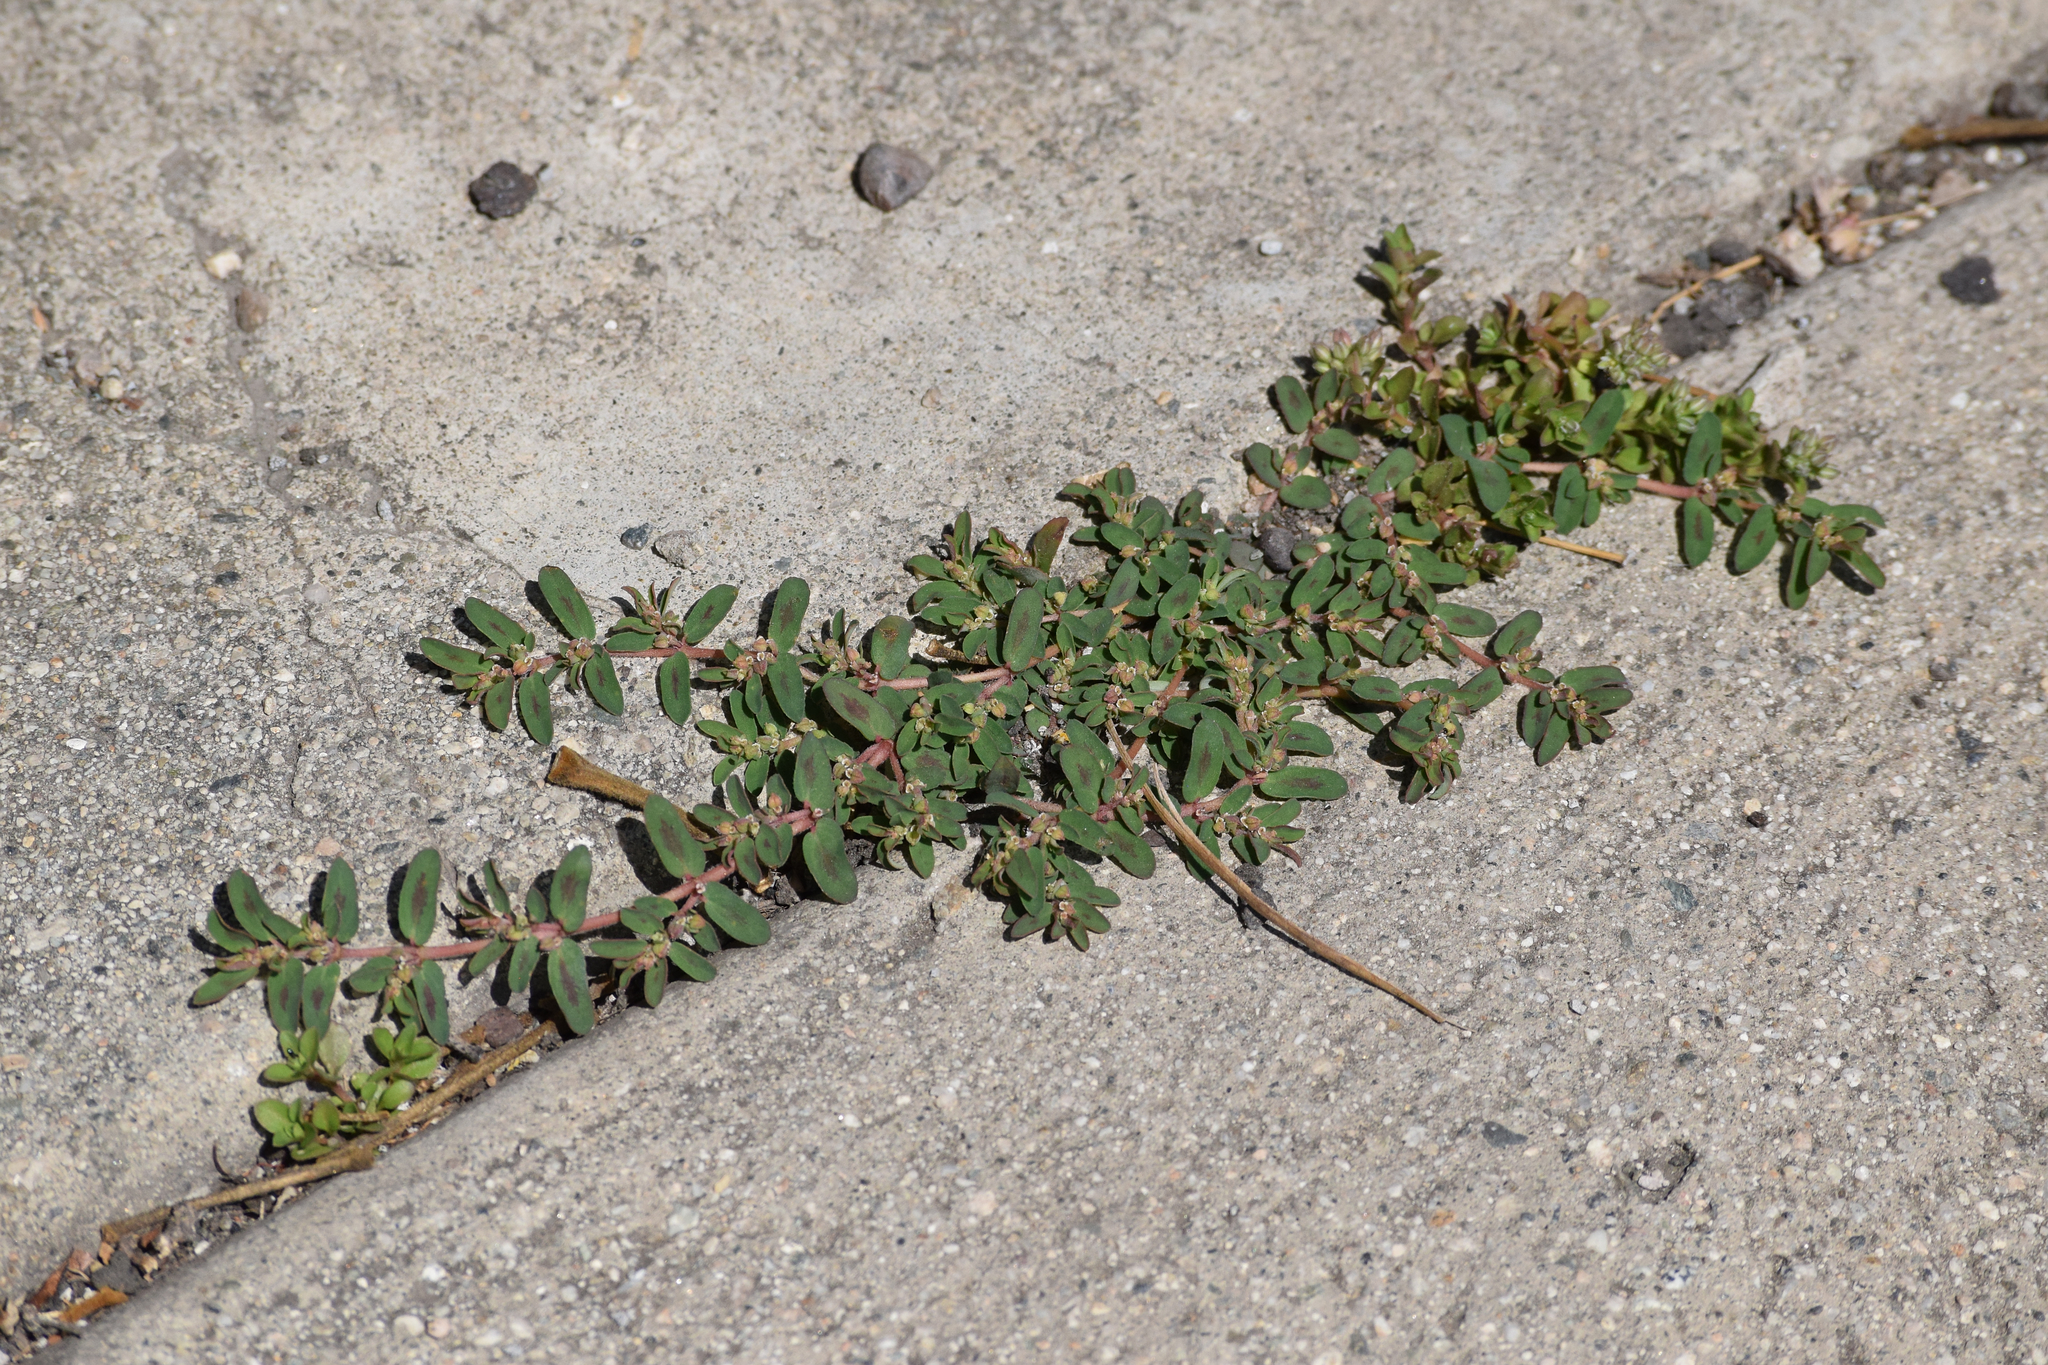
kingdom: Plantae
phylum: Tracheophyta
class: Magnoliopsida
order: Malpighiales
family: Euphorbiaceae
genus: Euphorbia
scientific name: Euphorbia maculata
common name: Spotted spurge
